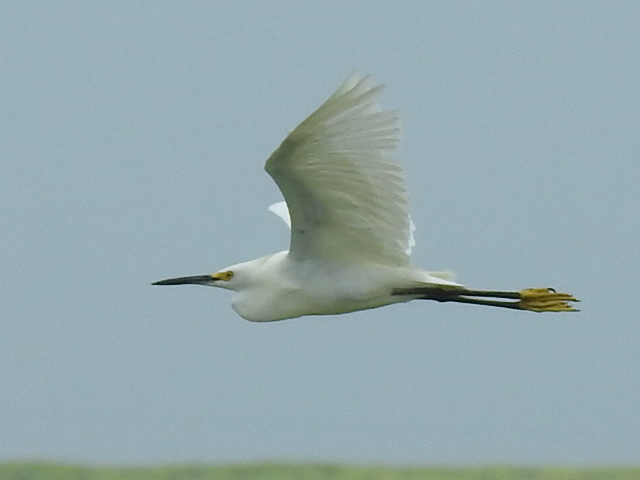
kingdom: Animalia
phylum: Chordata
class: Aves
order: Pelecaniformes
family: Ardeidae
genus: Egretta
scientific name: Egretta thula
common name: Snowy egret
